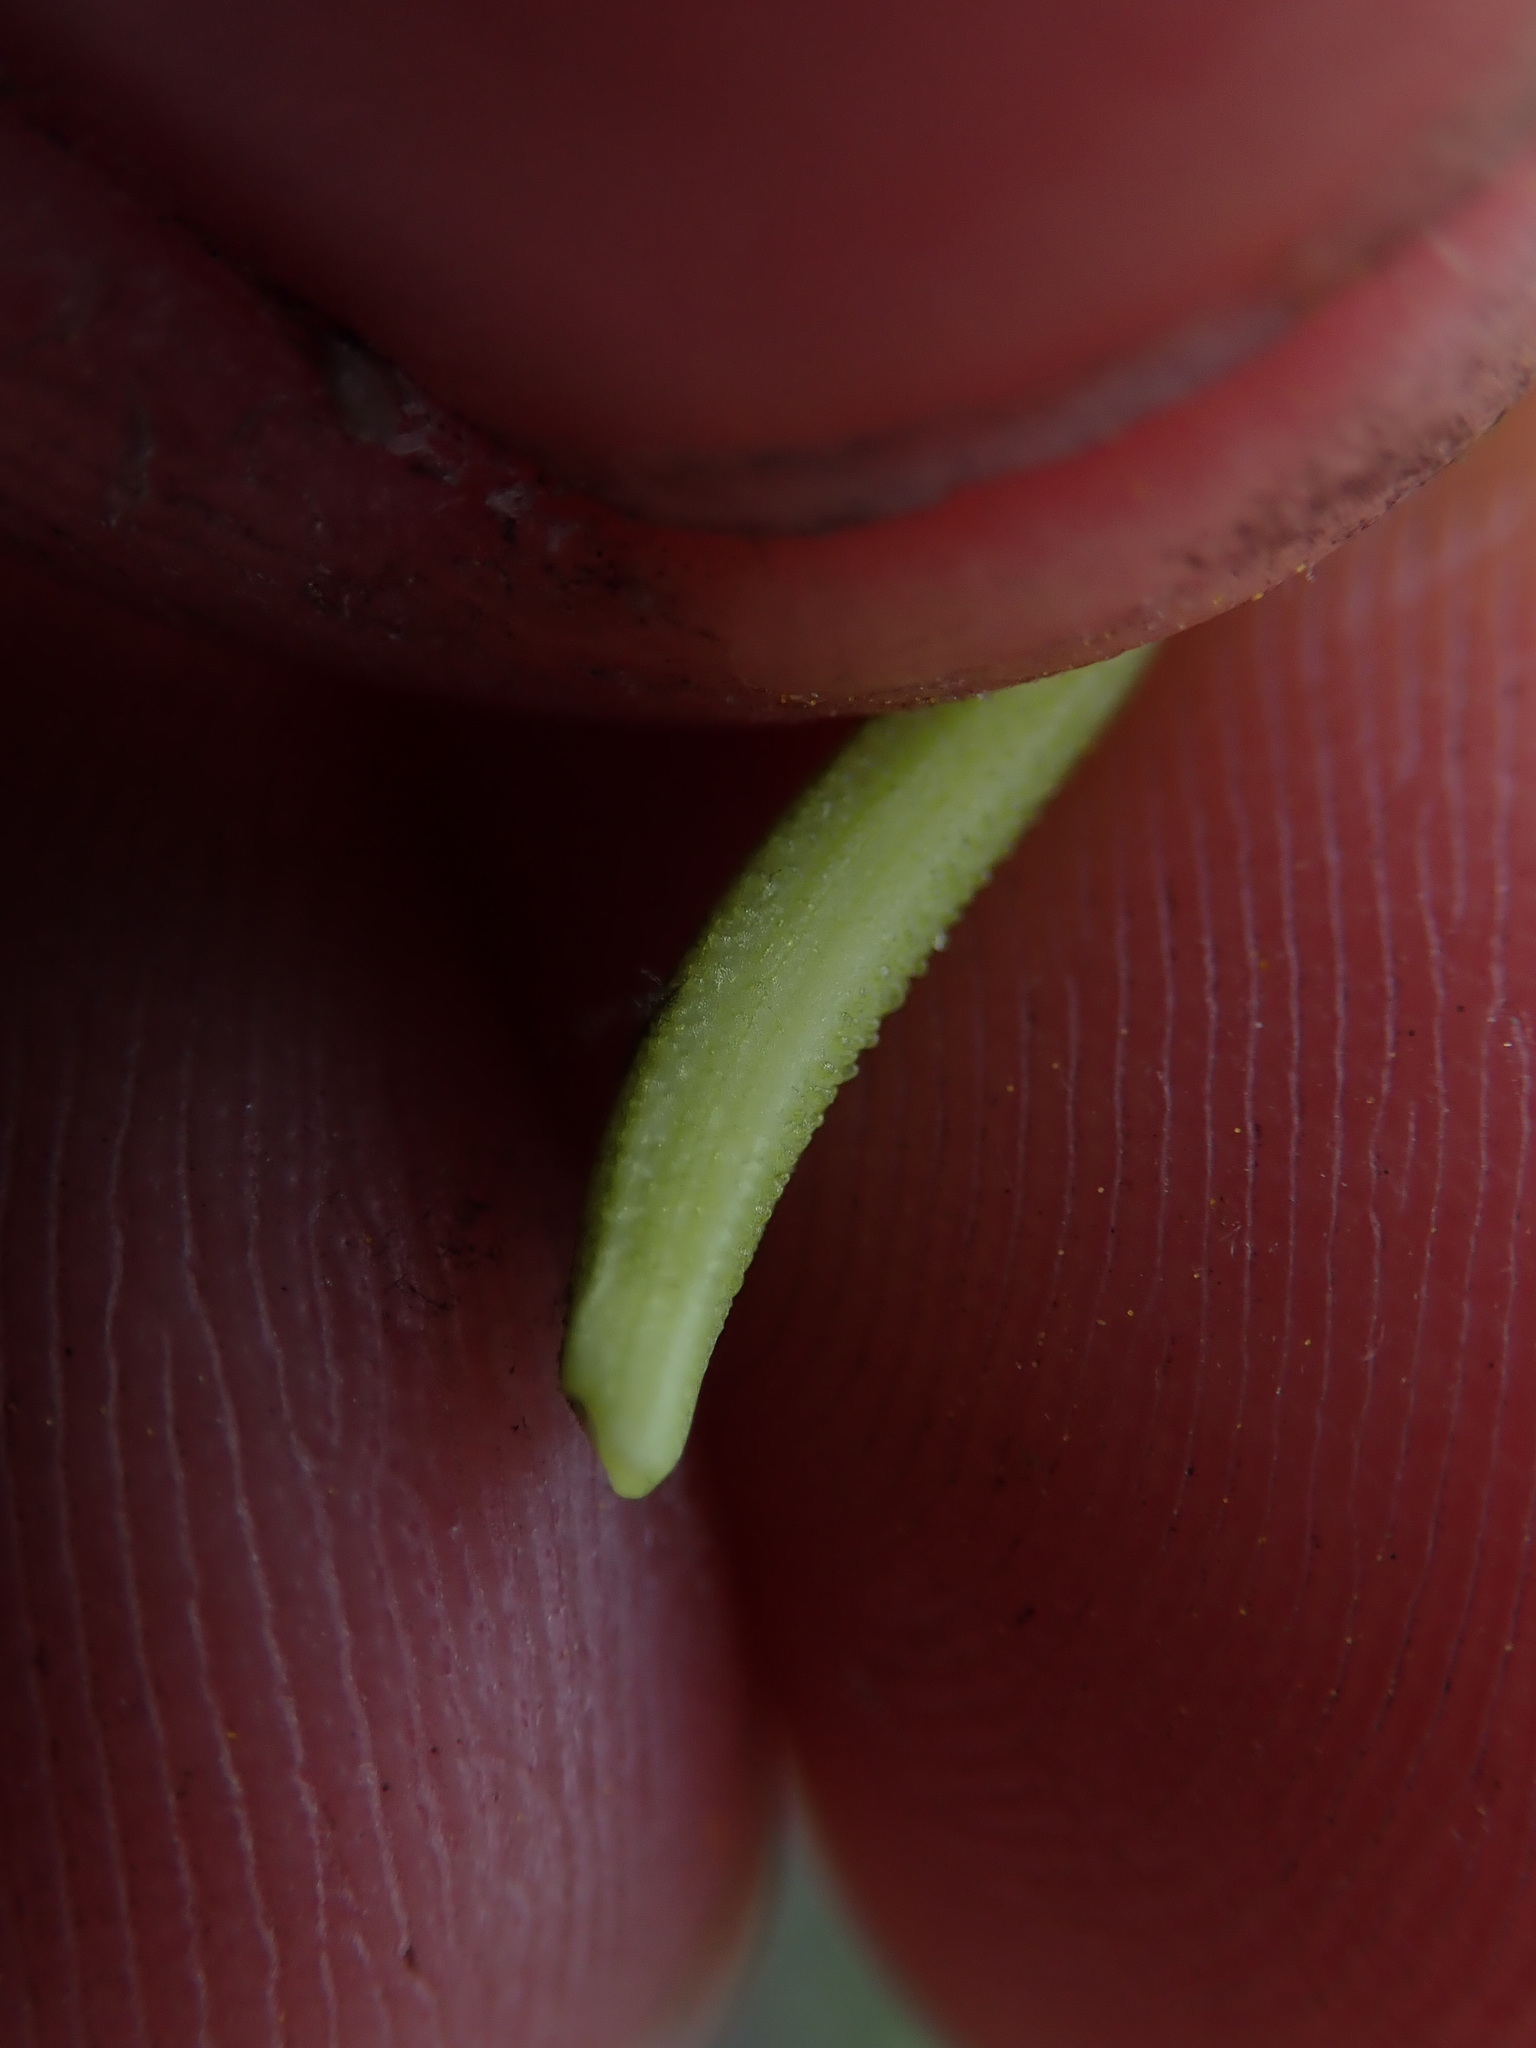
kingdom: Plantae
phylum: Tracheophyta
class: Magnoliopsida
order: Asterales
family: Asteraceae
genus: Tragopogon
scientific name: Tragopogon pratensis
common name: Goat's-beard
